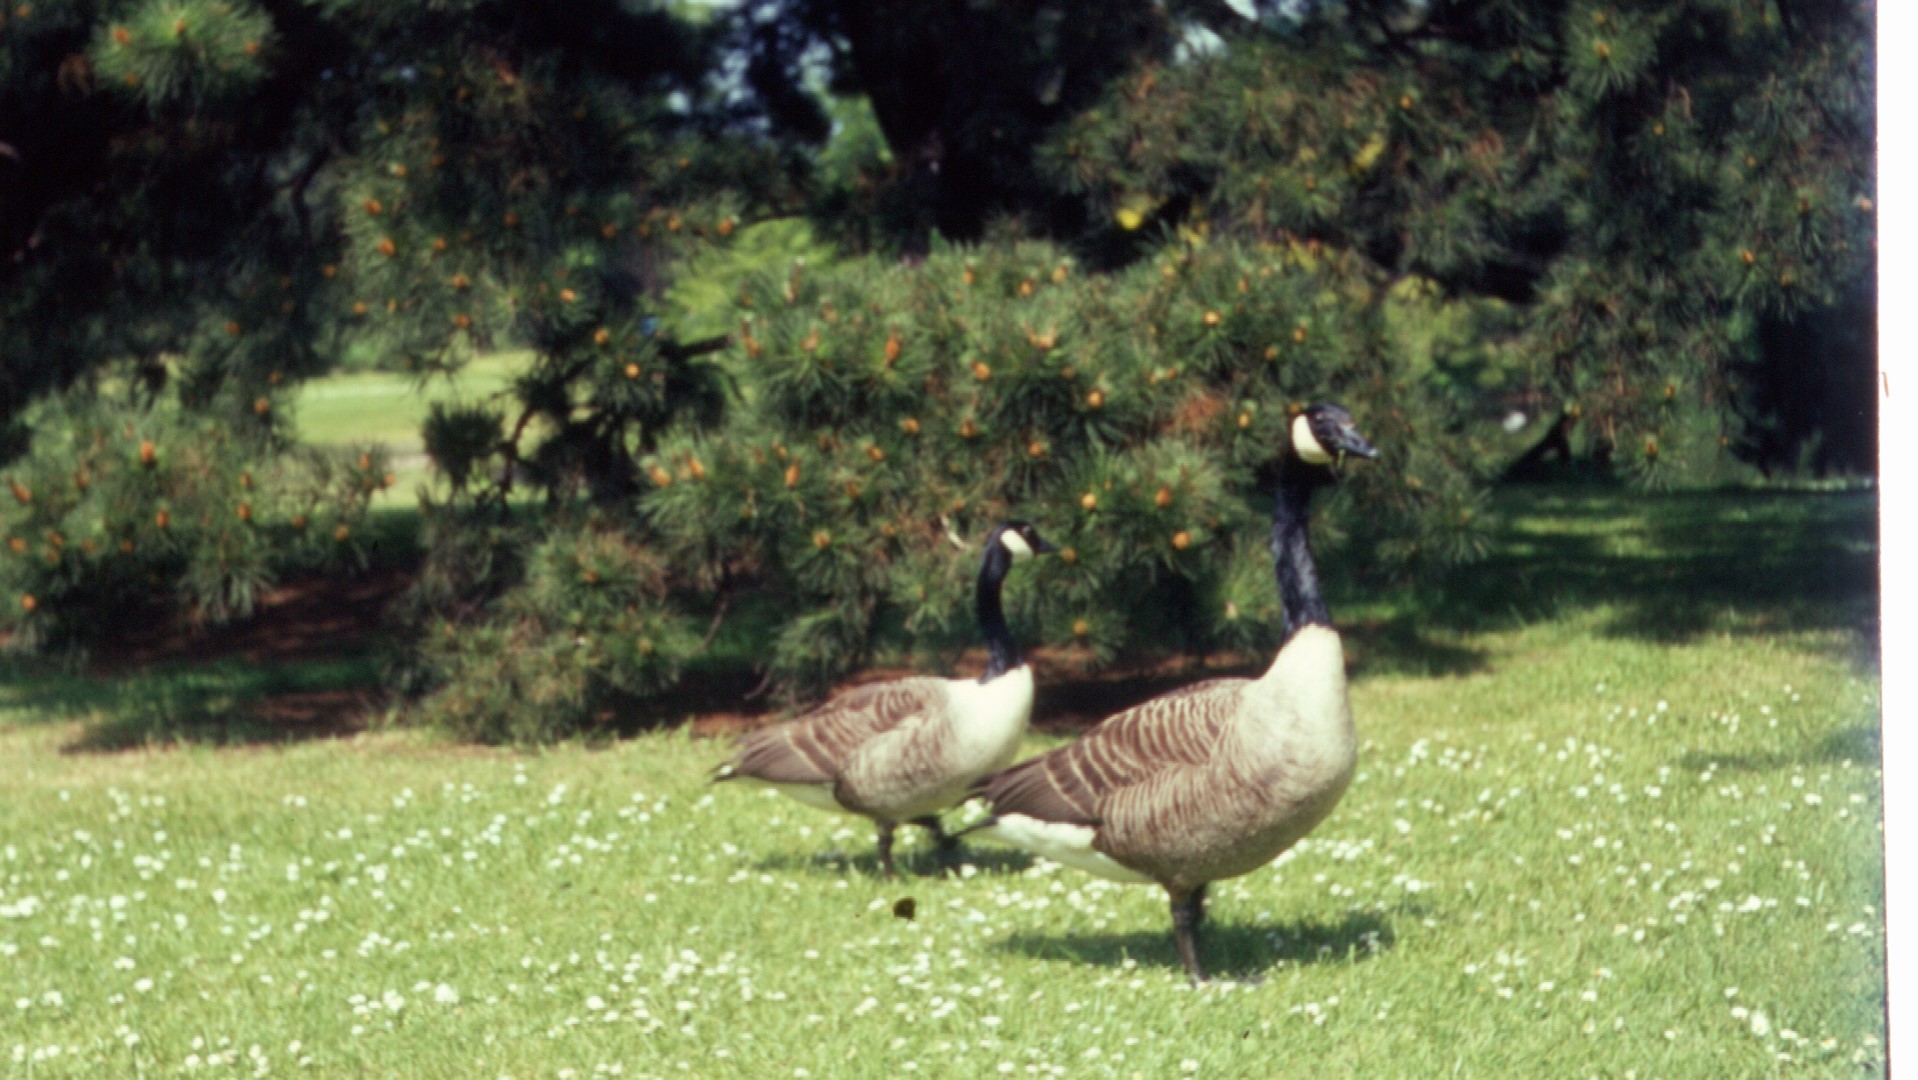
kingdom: Animalia
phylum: Chordata
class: Aves
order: Anseriformes
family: Anatidae
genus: Branta
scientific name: Branta canadensis
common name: Canada goose
